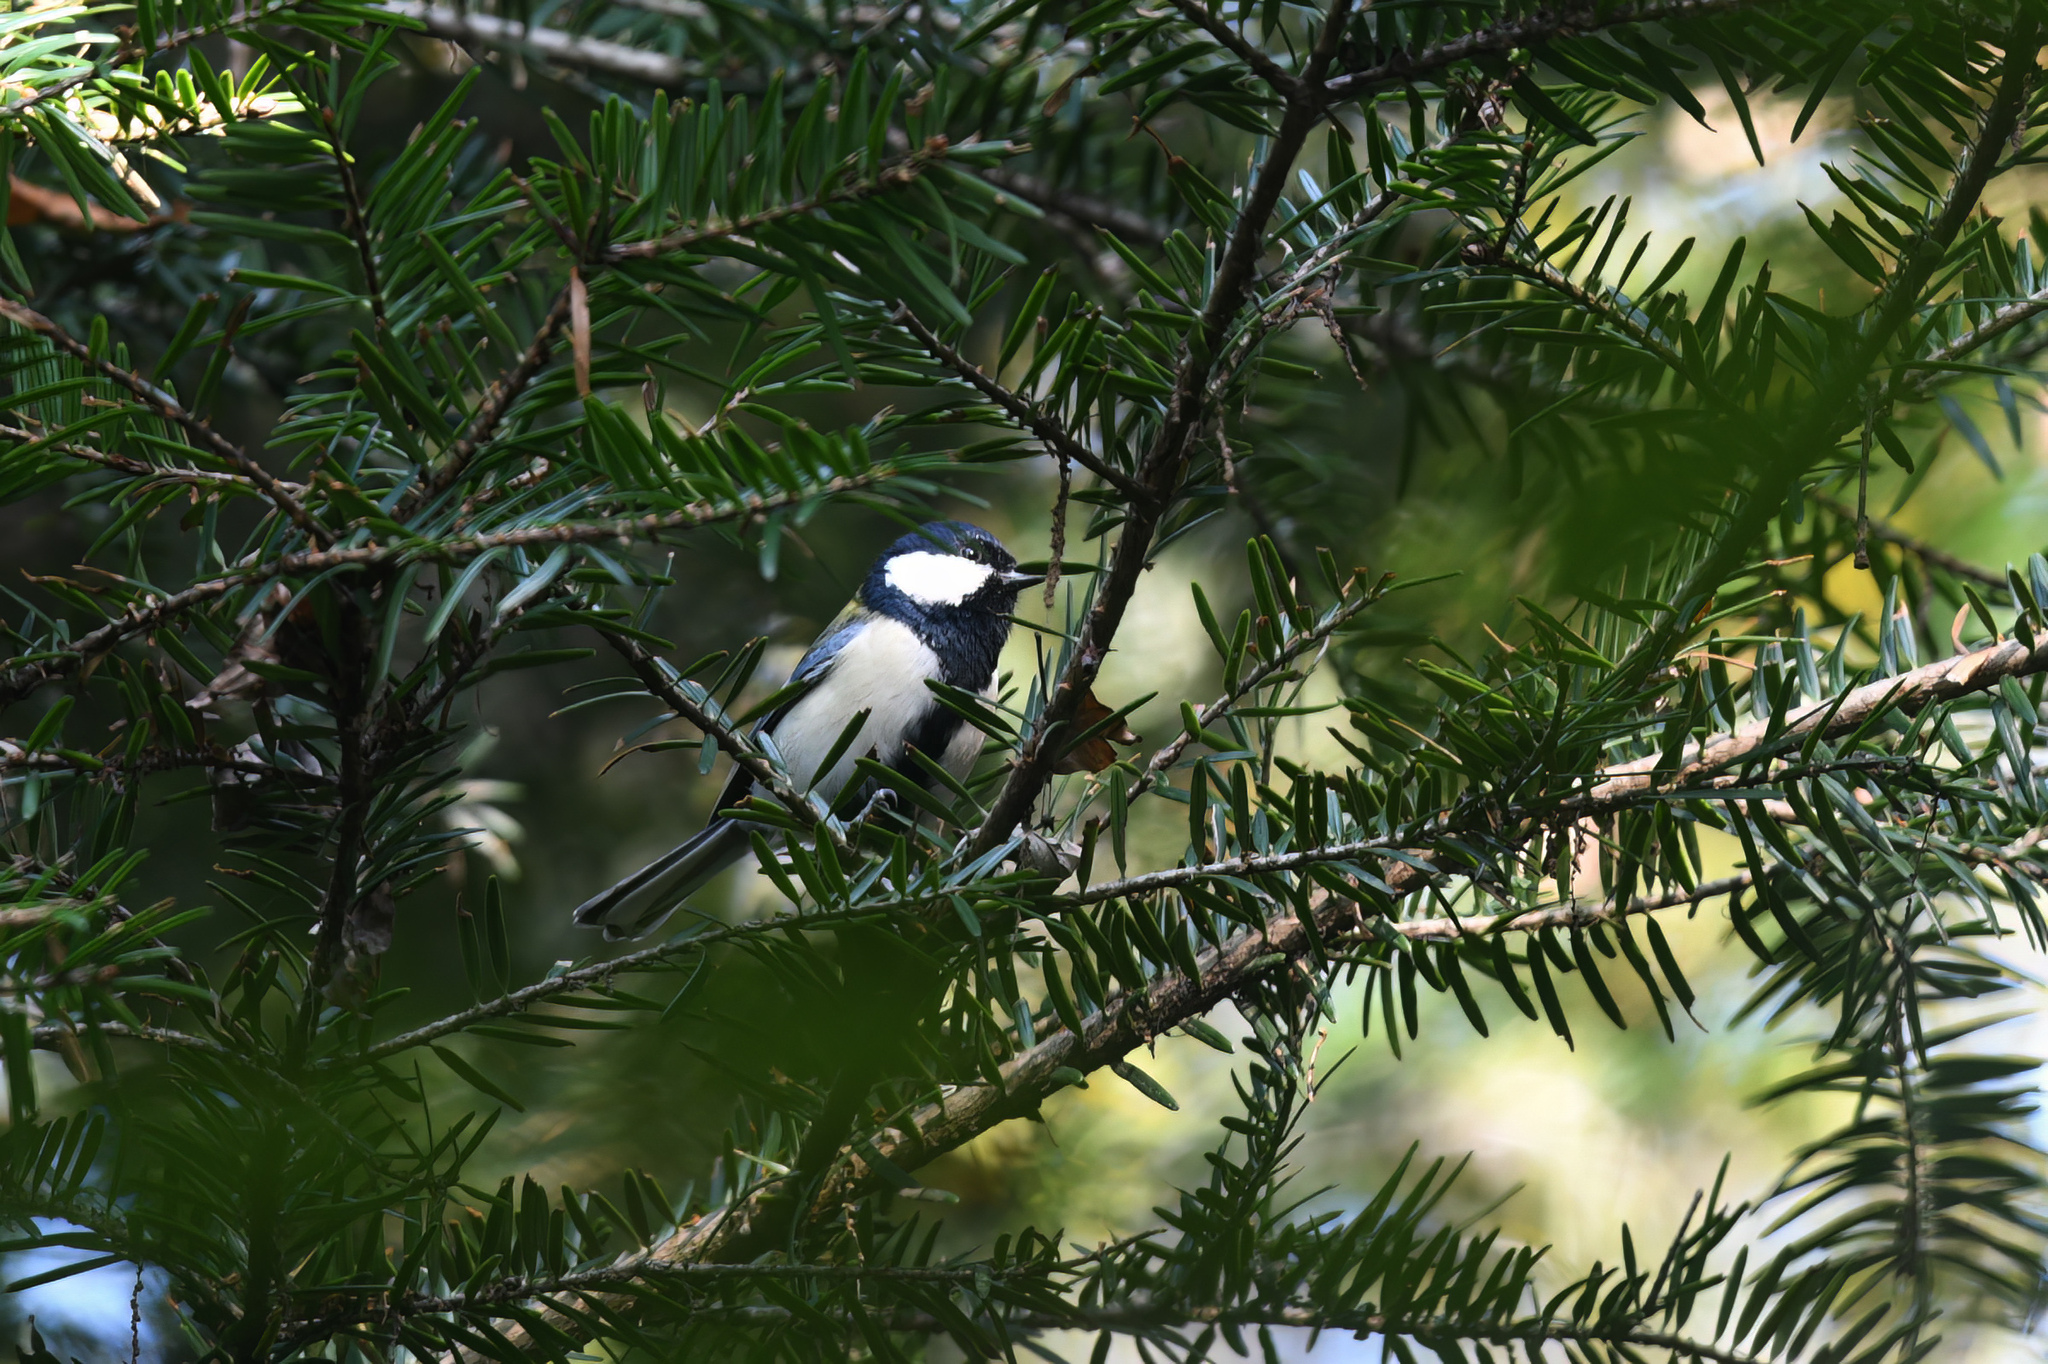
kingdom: Animalia
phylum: Chordata
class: Aves
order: Passeriformes
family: Paridae
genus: Parus
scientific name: Parus minor
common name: Japanese tit
